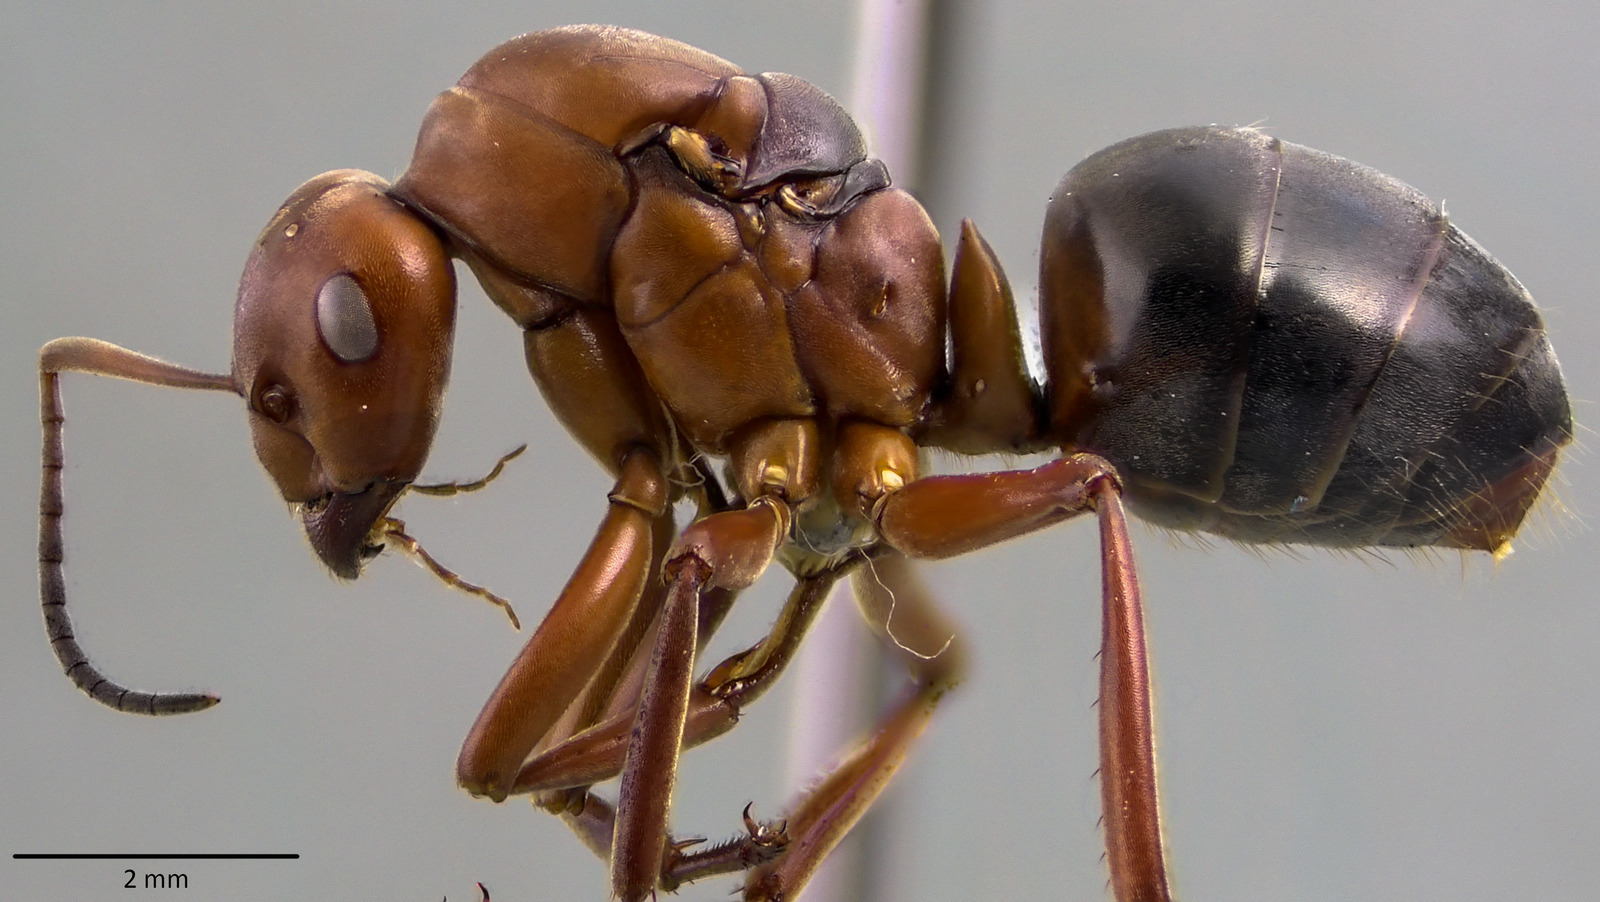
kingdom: Animalia
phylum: Arthropoda
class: Insecta
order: Hymenoptera
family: Formicidae
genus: Formica
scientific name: Formica integra
